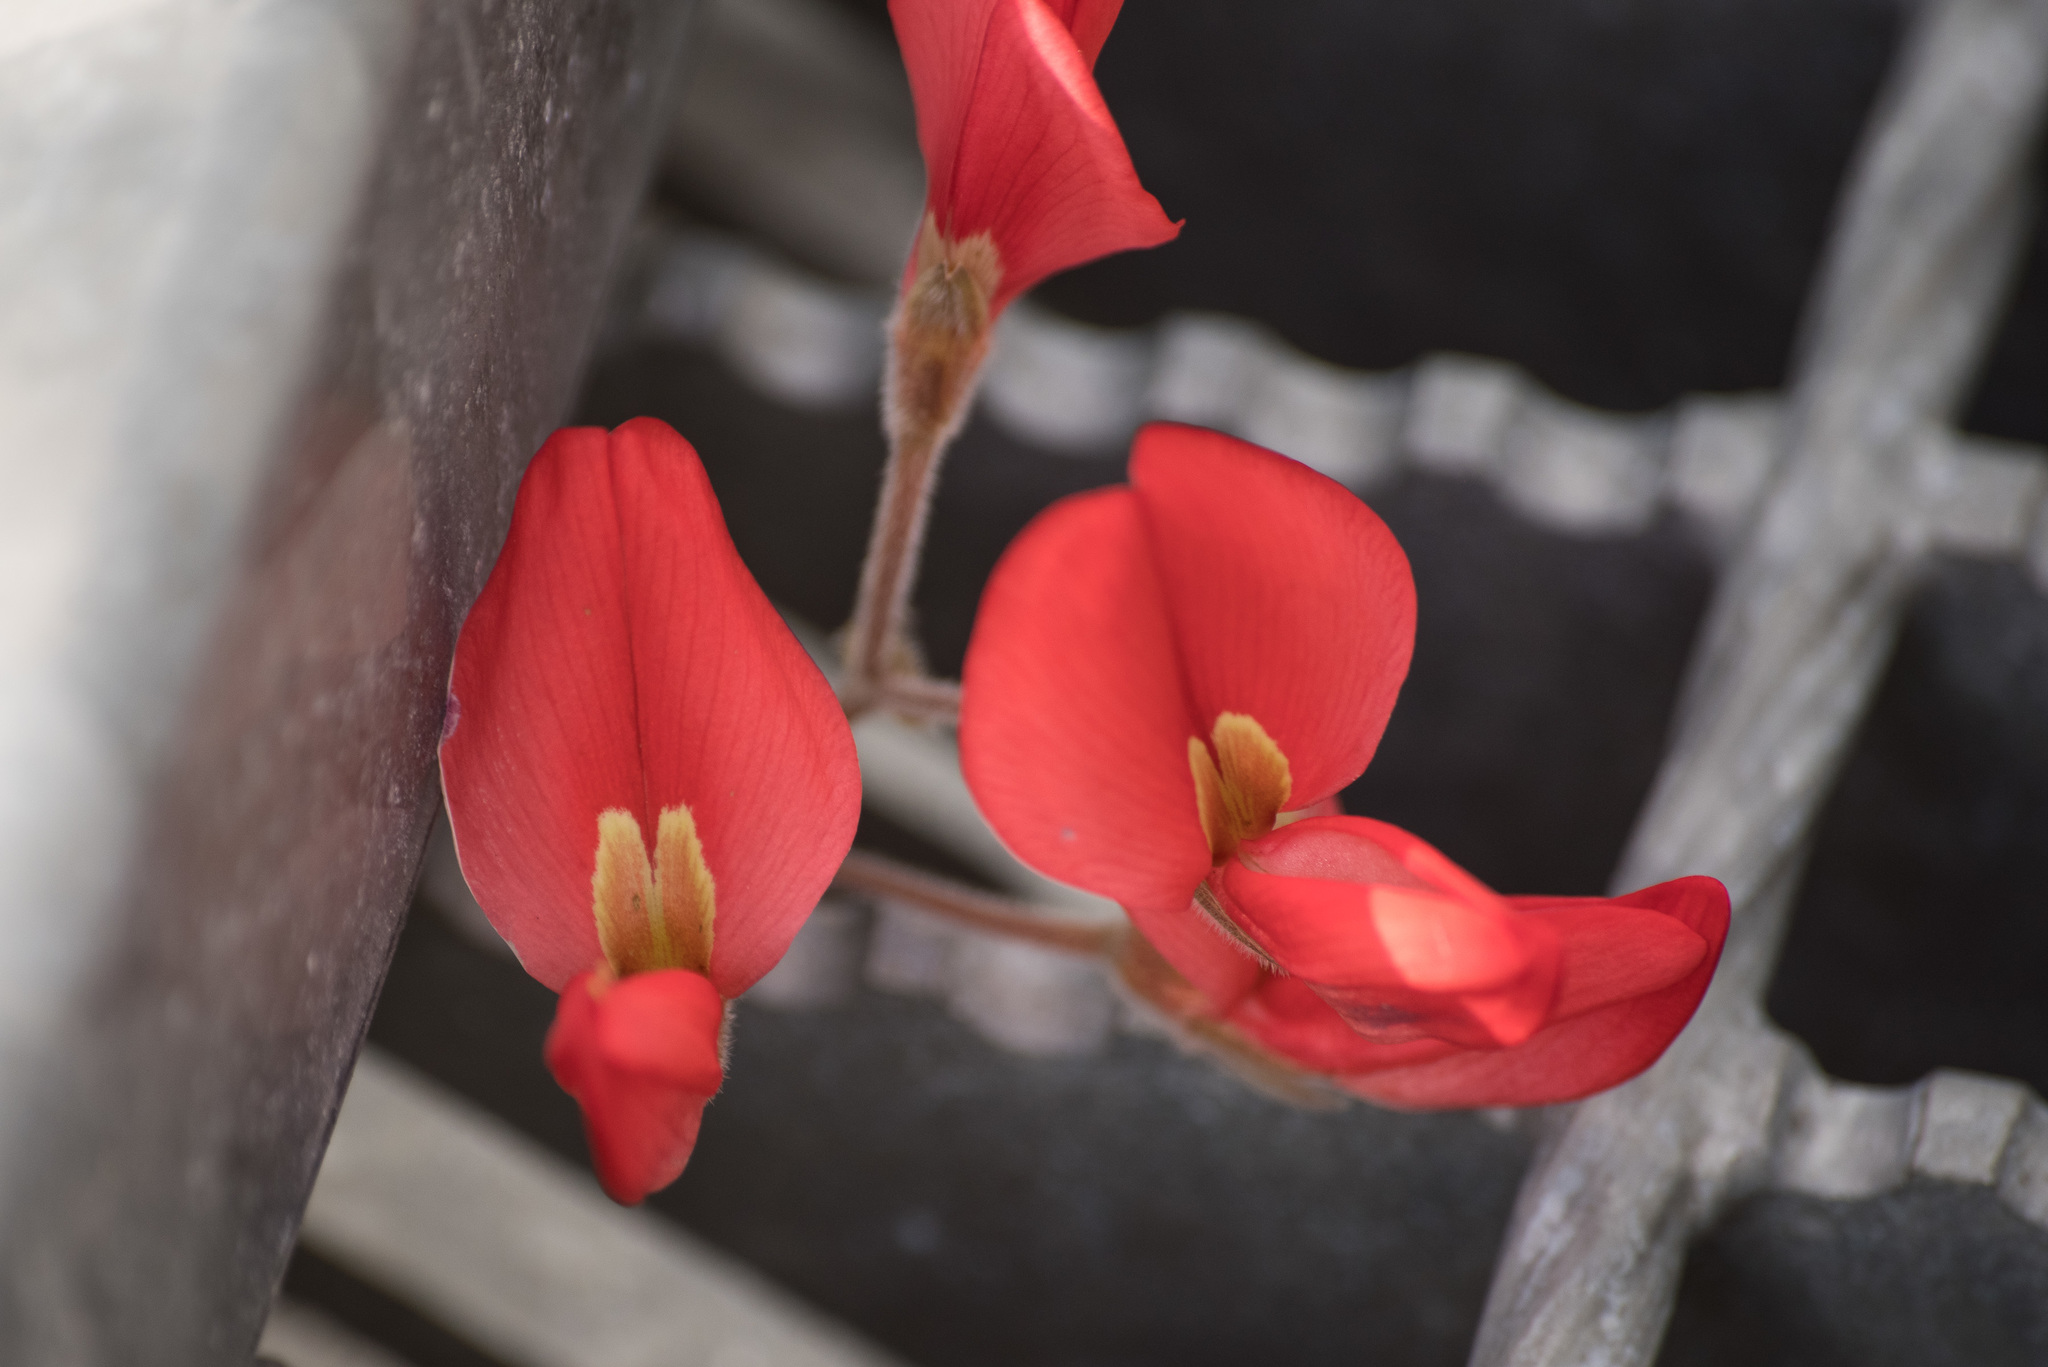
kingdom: Plantae
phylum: Tracheophyta
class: Magnoliopsida
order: Fabales
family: Fabaceae
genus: Kennedia
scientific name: Kennedia prostrata
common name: Running-postman
